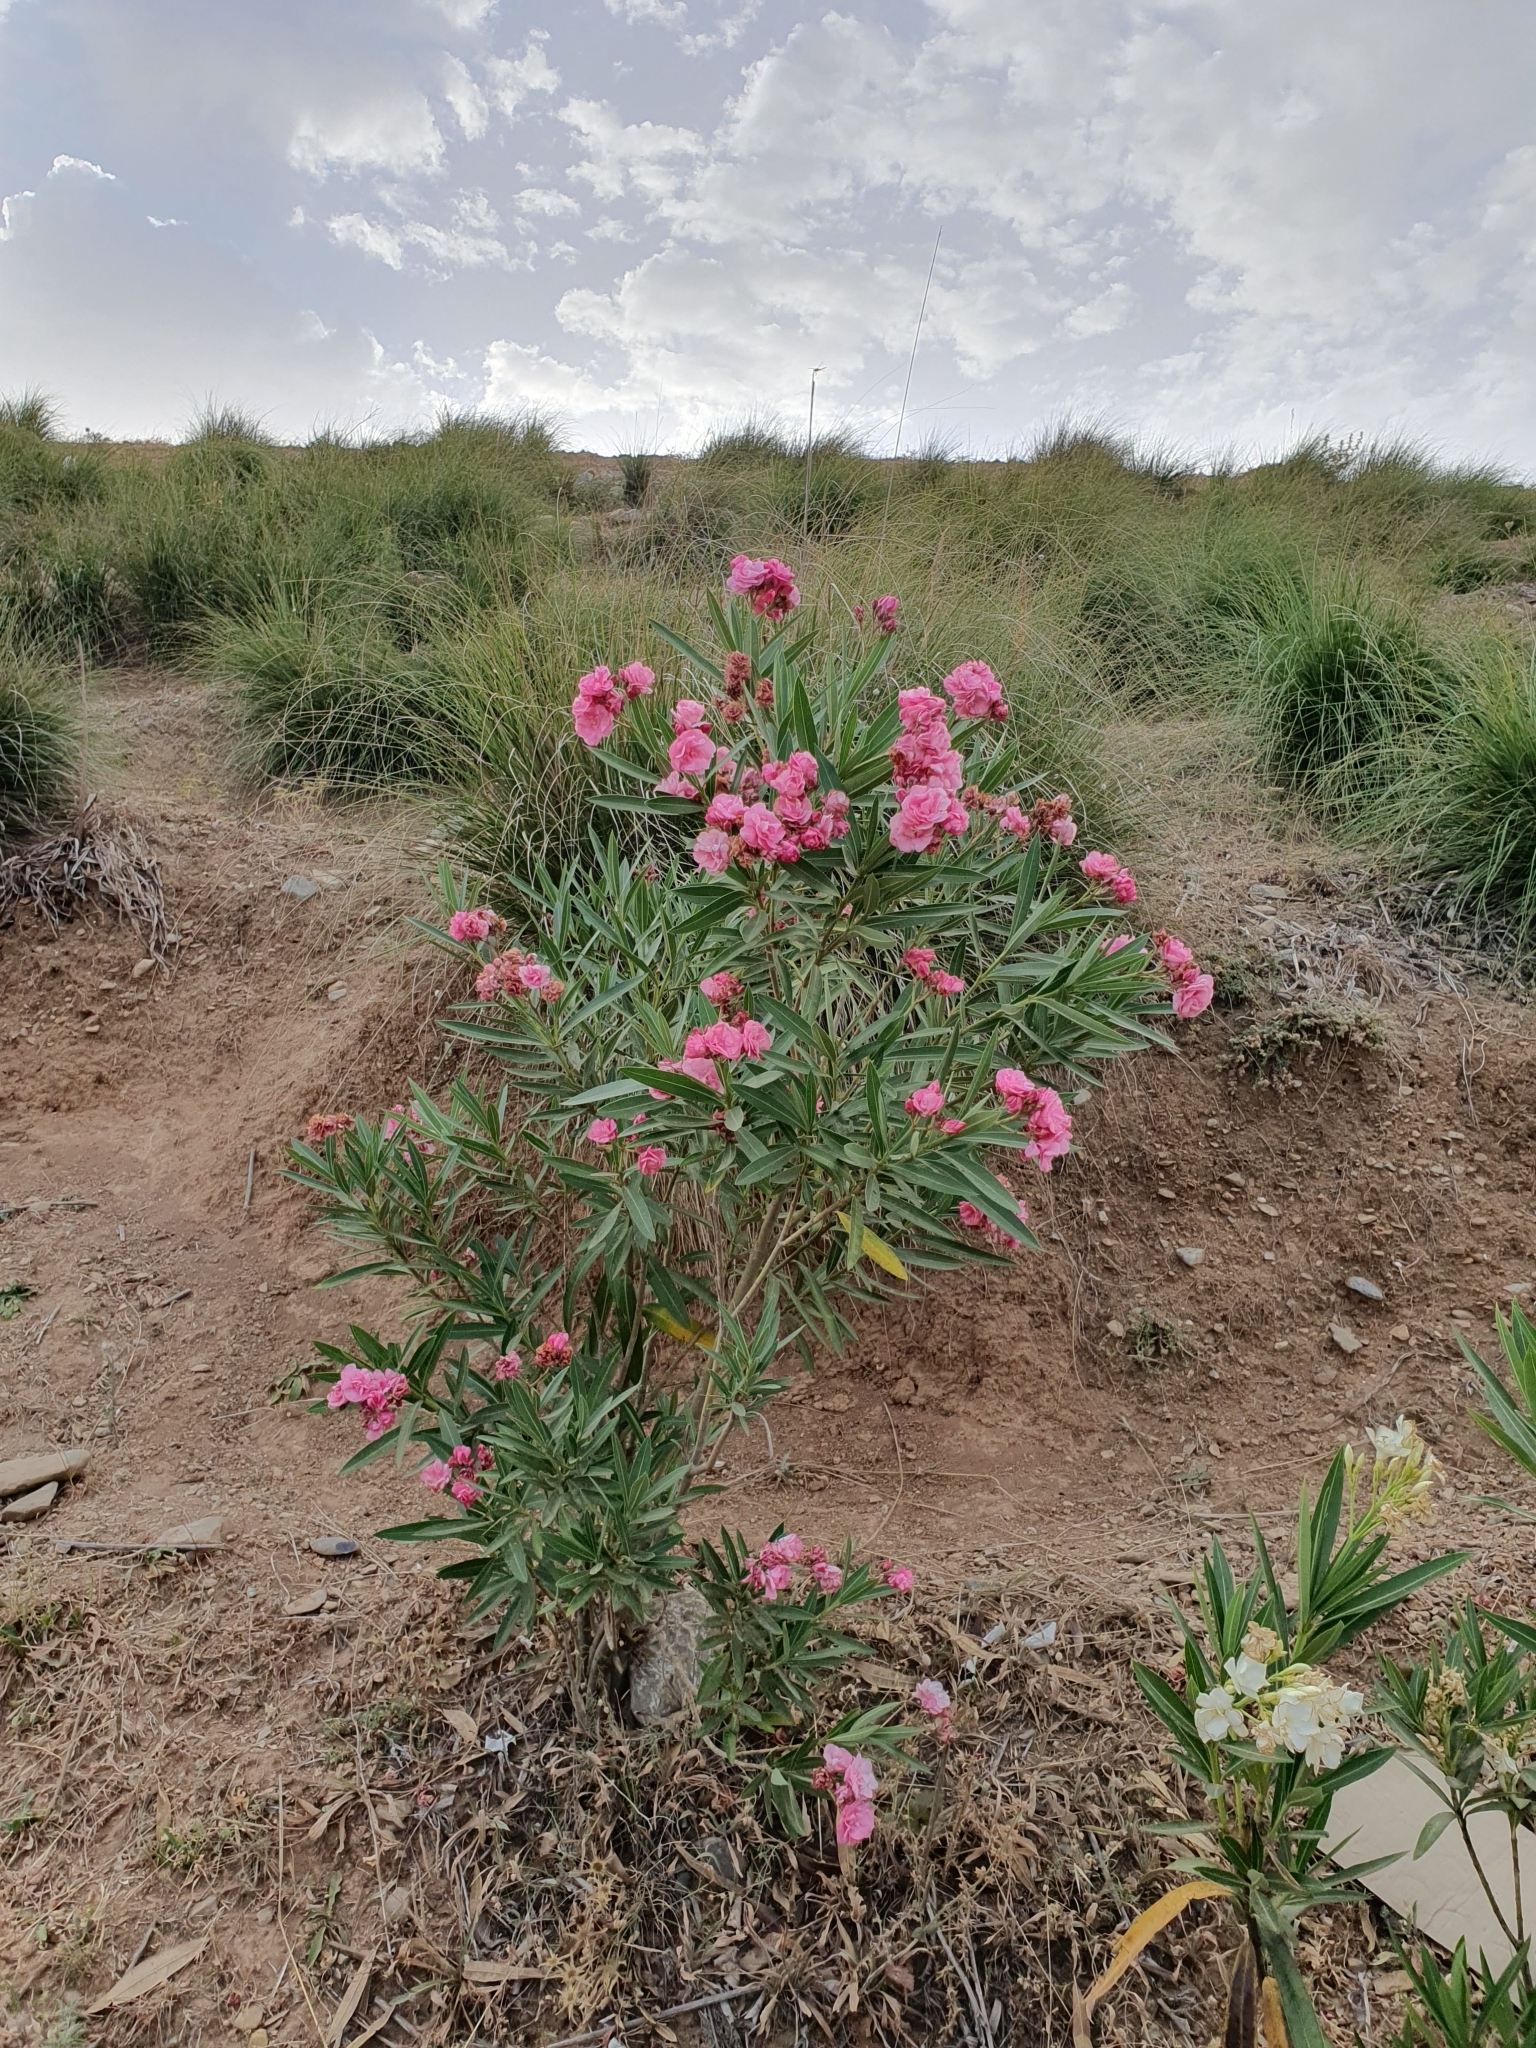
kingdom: Plantae
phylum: Tracheophyta
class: Magnoliopsida
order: Gentianales
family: Apocynaceae
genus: Nerium
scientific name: Nerium oleander
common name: Oleander
